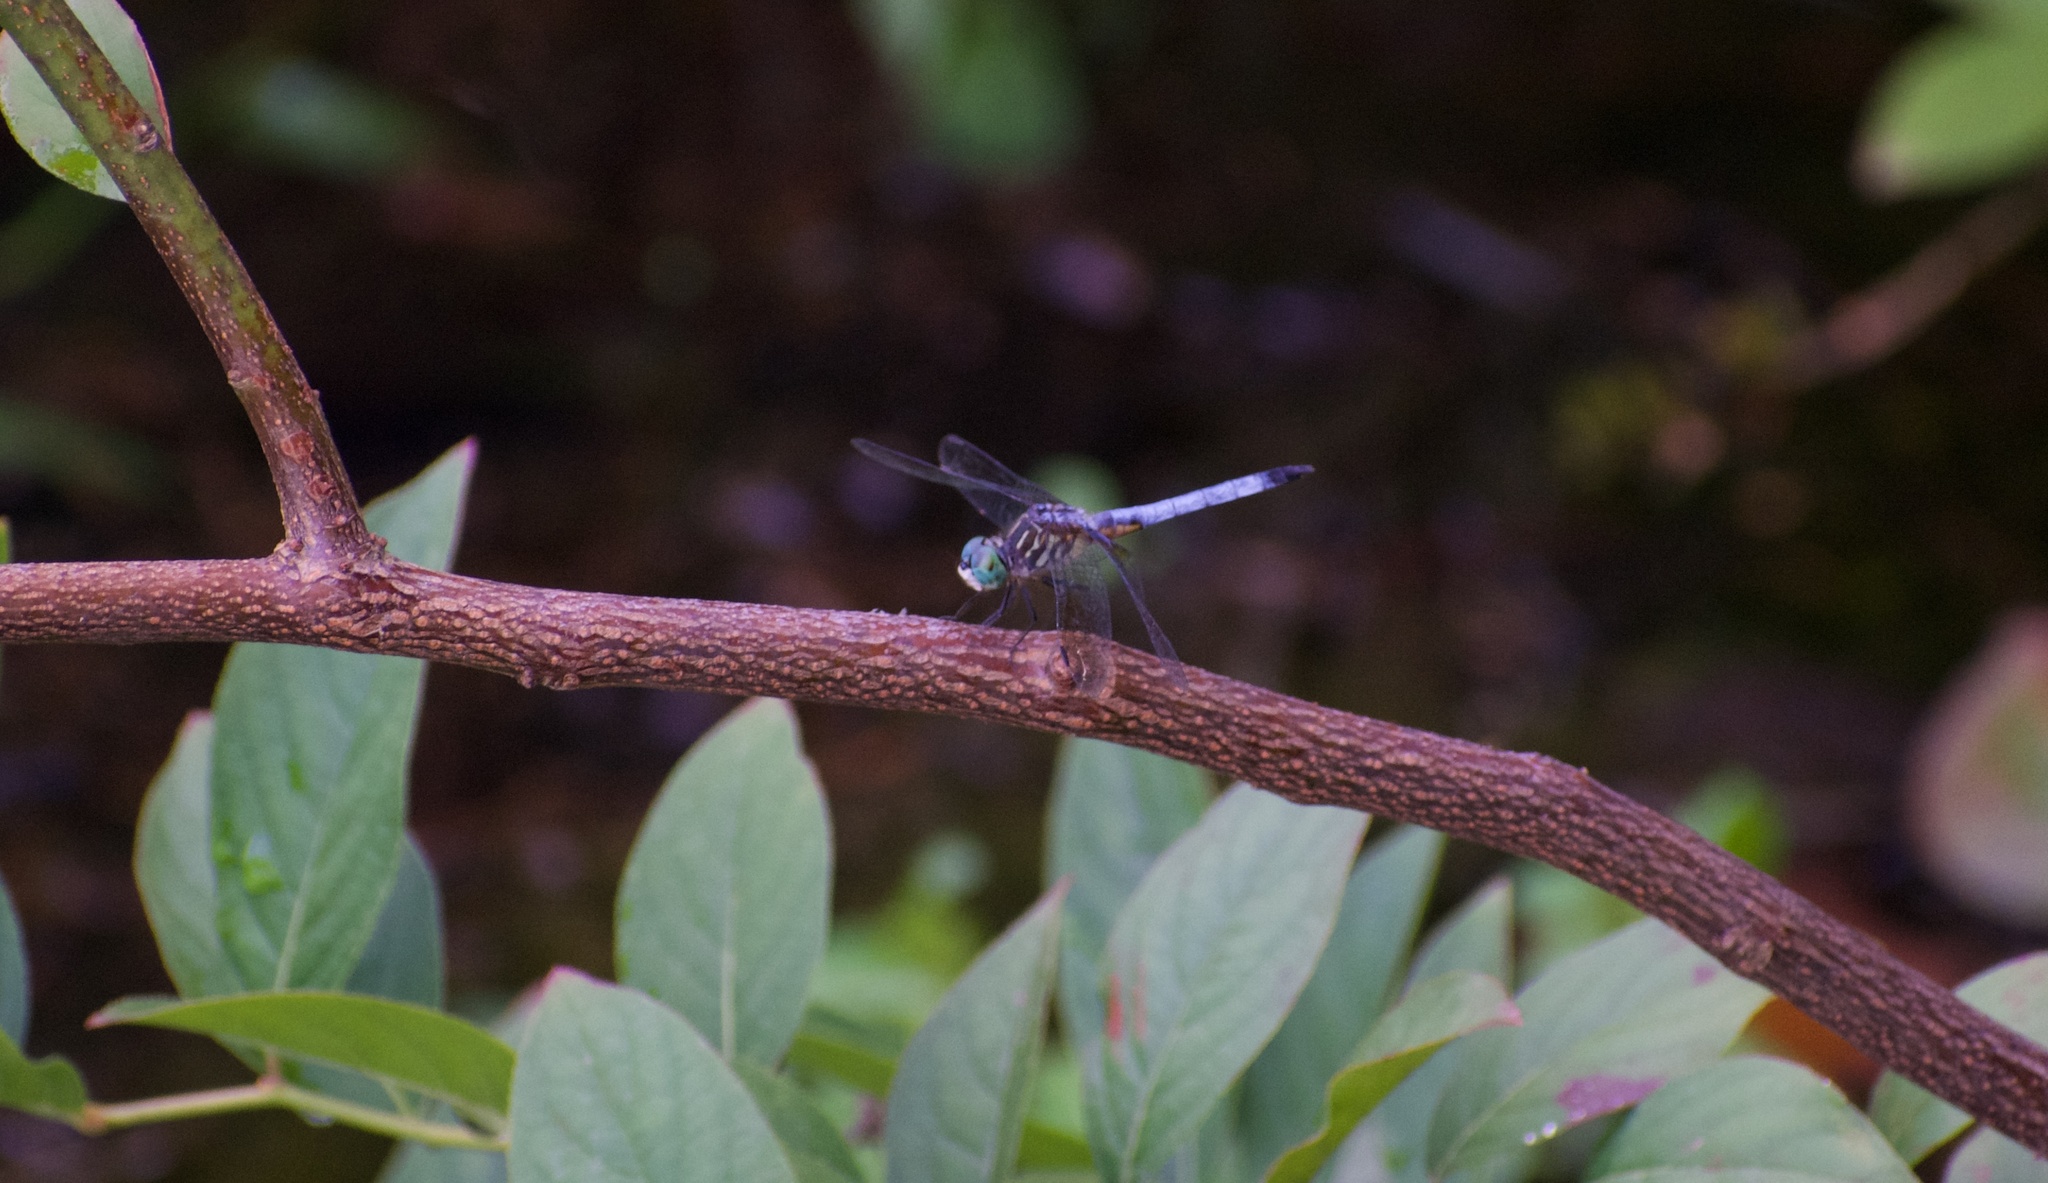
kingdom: Animalia
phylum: Arthropoda
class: Insecta
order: Odonata
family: Libellulidae
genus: Pachydiplax
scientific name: Pachydiplax longipennis
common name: Blue dasher
